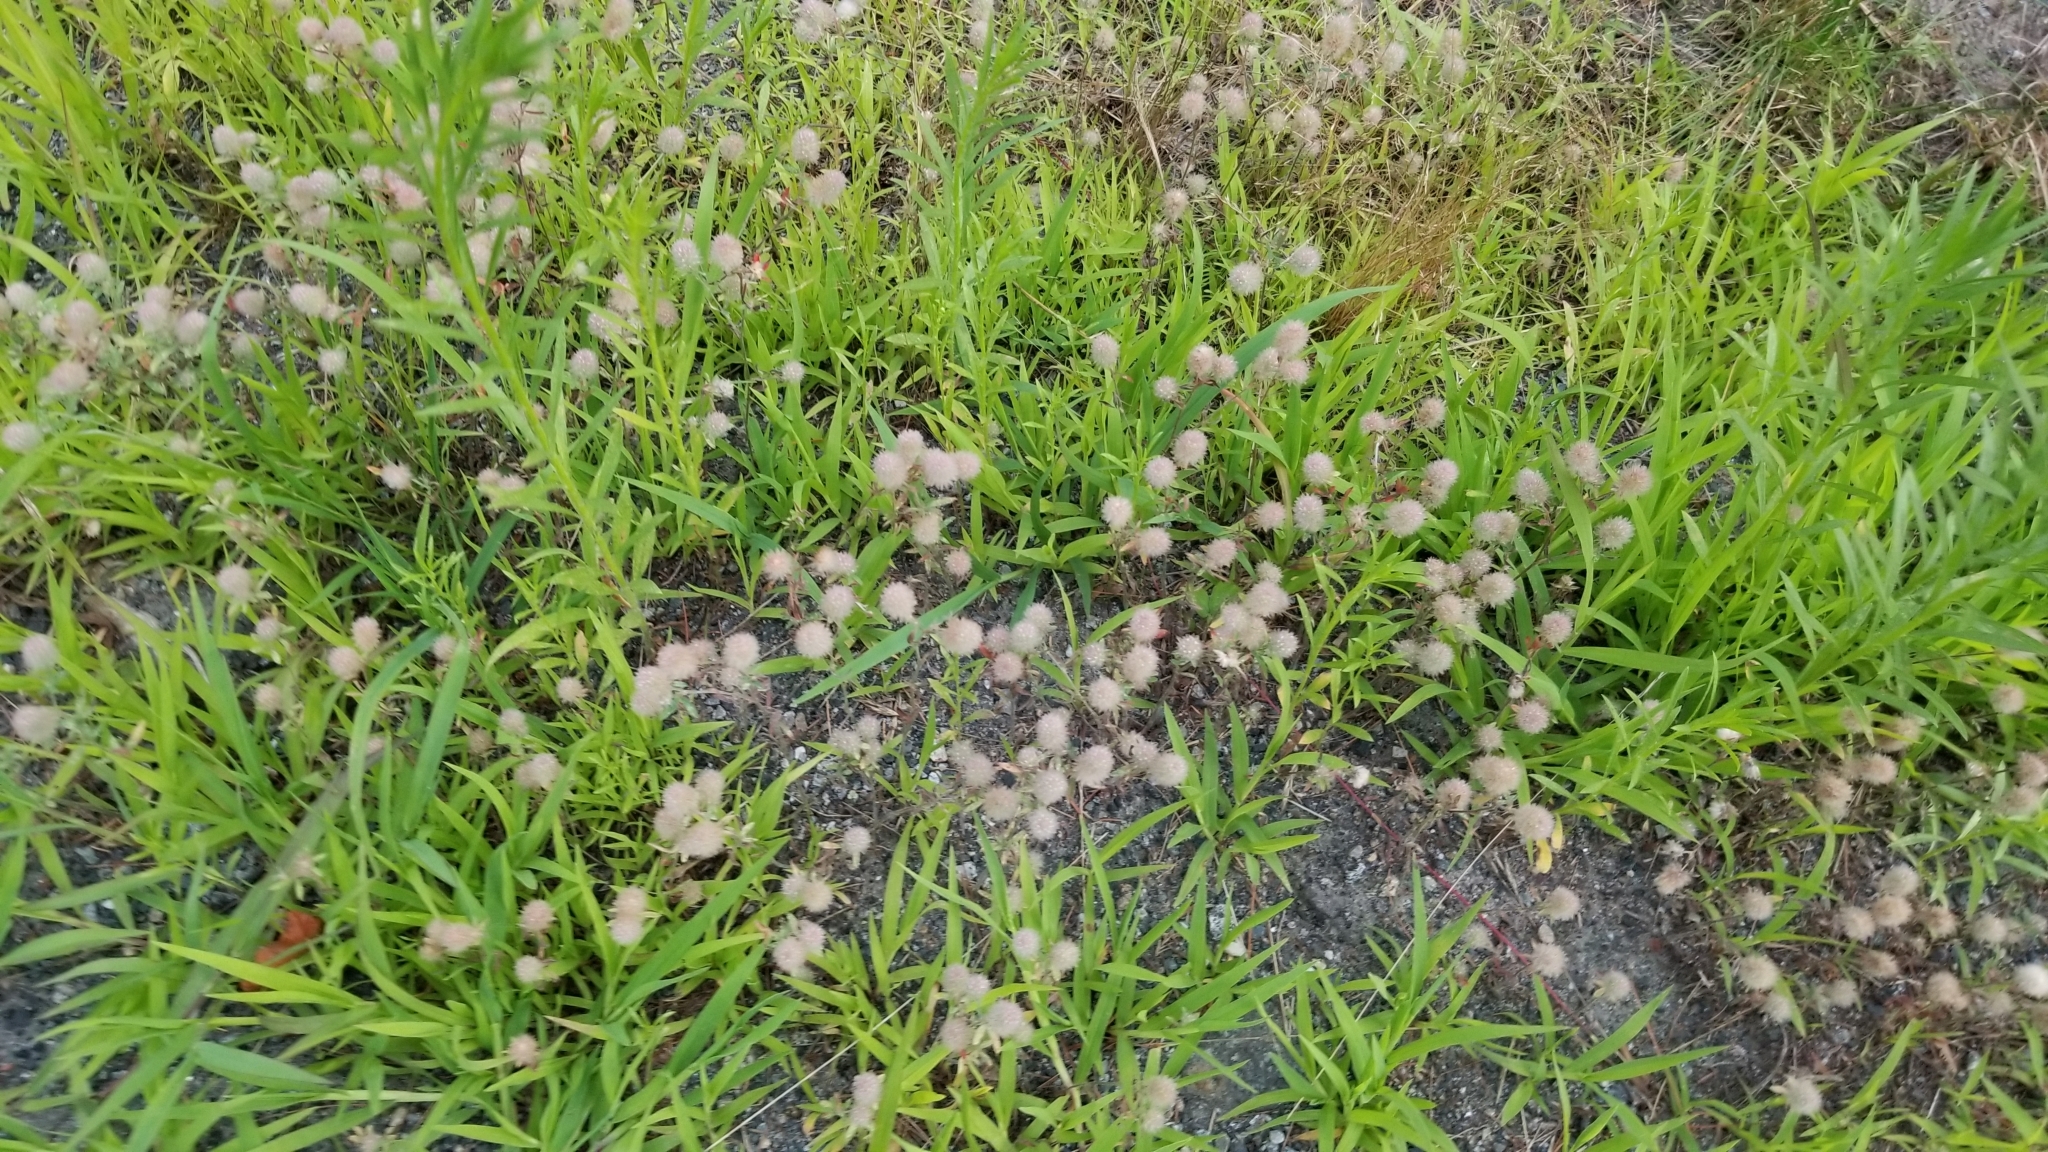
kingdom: Plantae
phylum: Tracheophyta
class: Magnoliopsida
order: Fabales
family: Fabaceae
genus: Trifolium
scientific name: Trifolium arvense
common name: Hare's-foot clover
